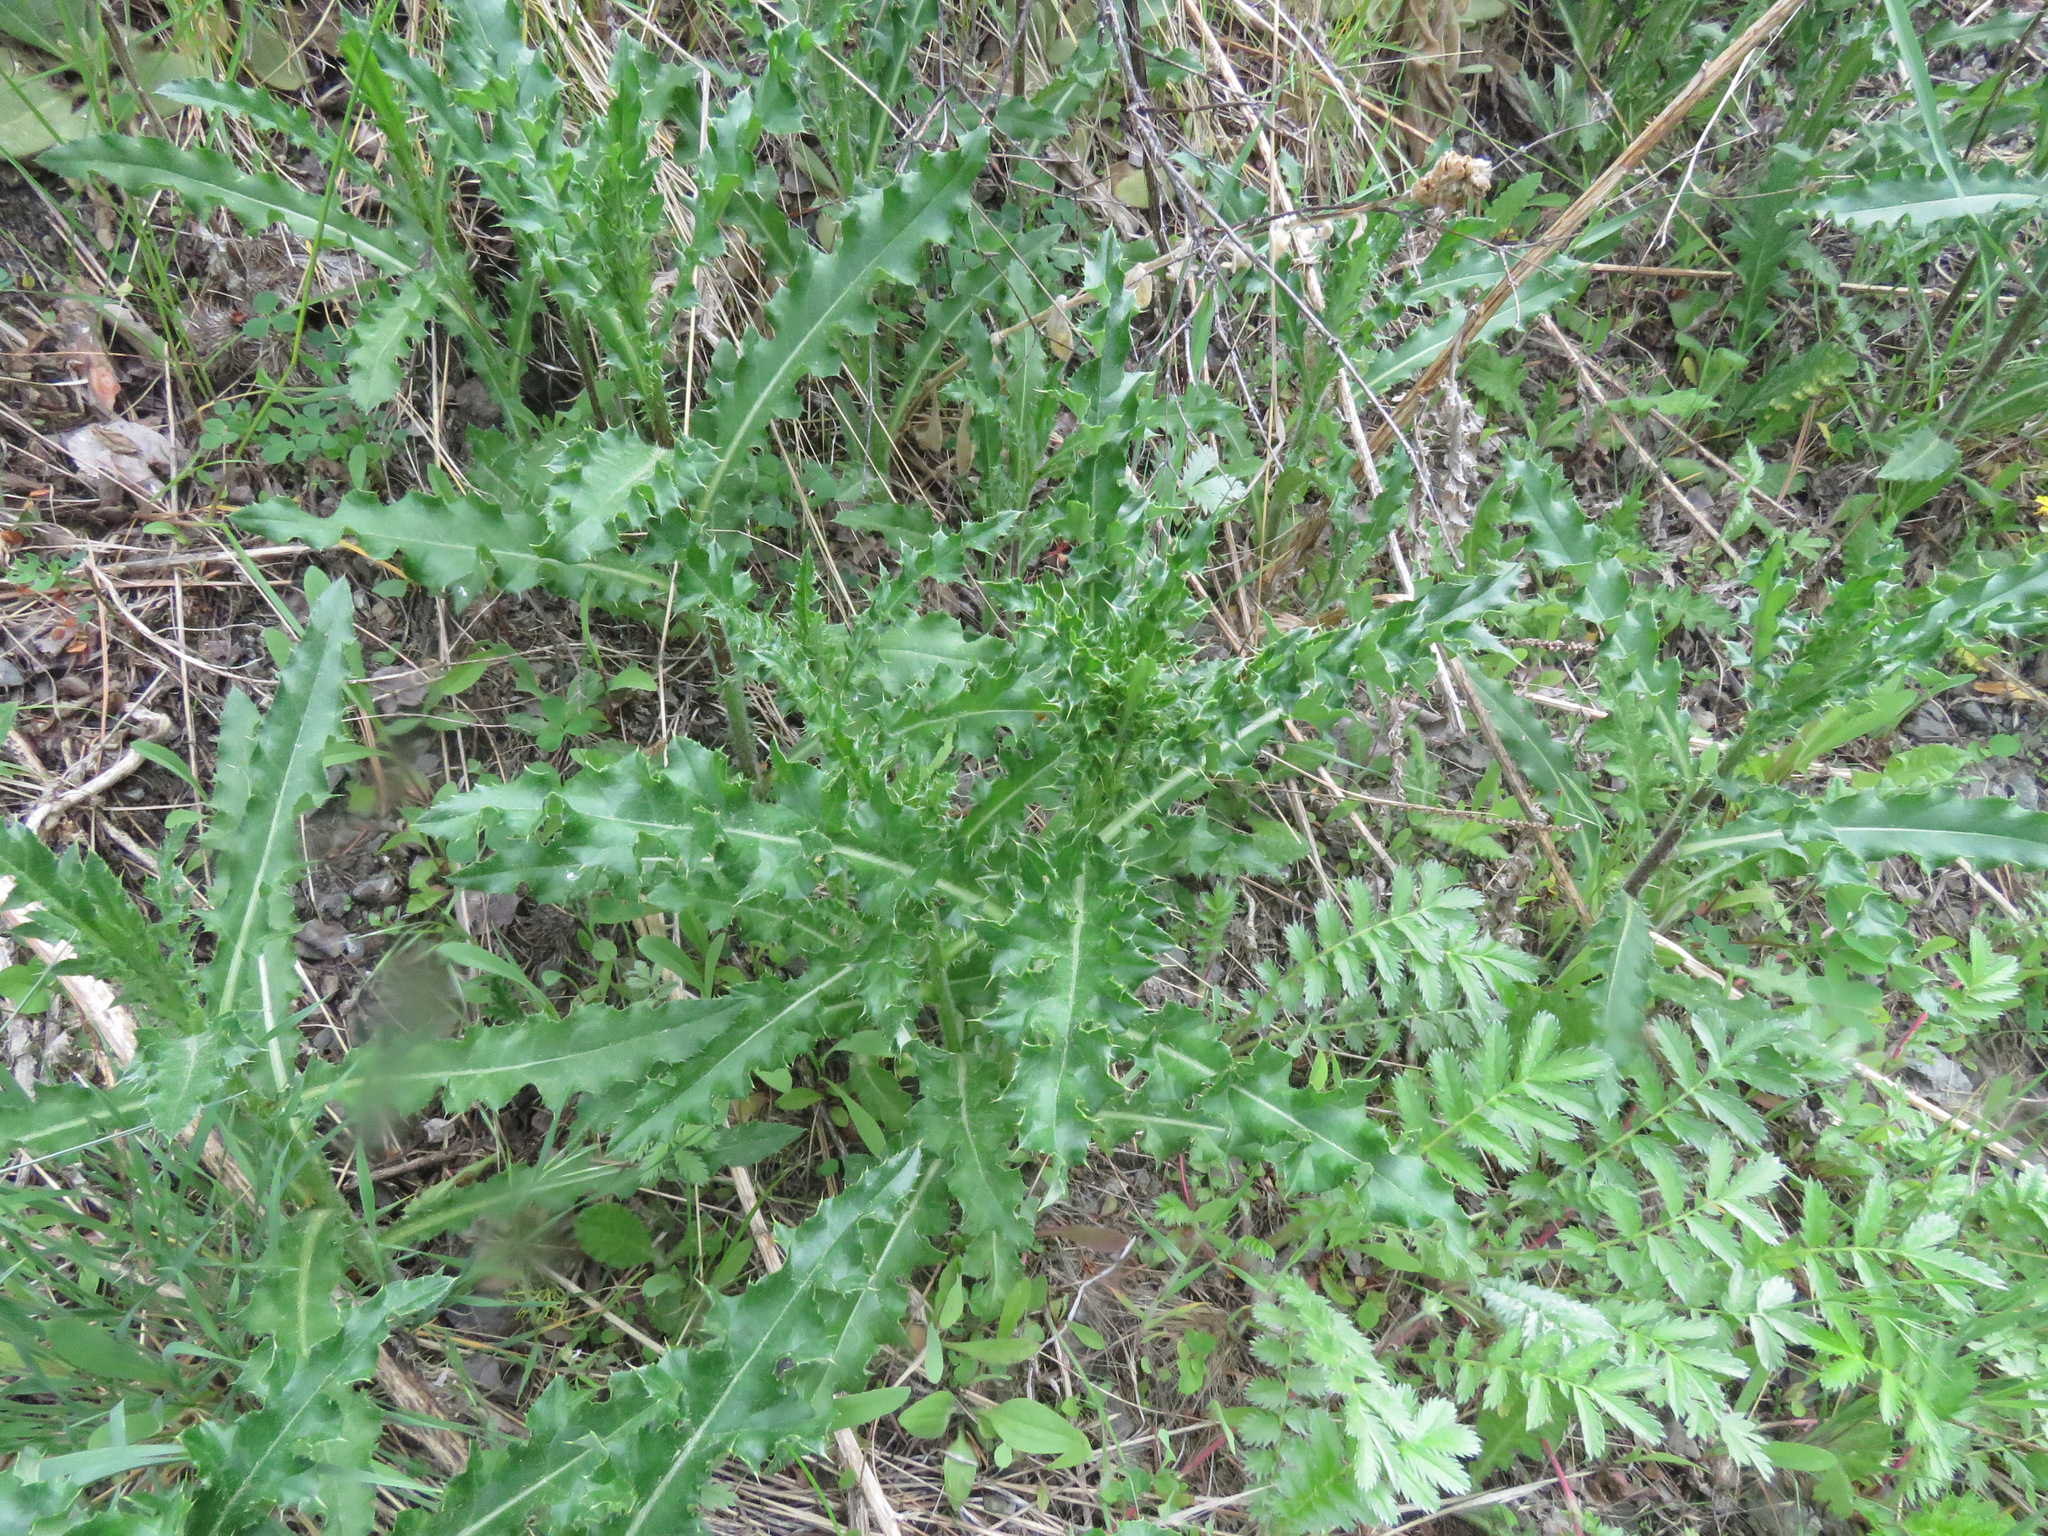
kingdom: Plantae
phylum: Tracheophyta
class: Magnoliopsida
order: Asterales
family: Asteraceae
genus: Cirsium
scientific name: Cirsium arvense
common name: Creeping thistle
